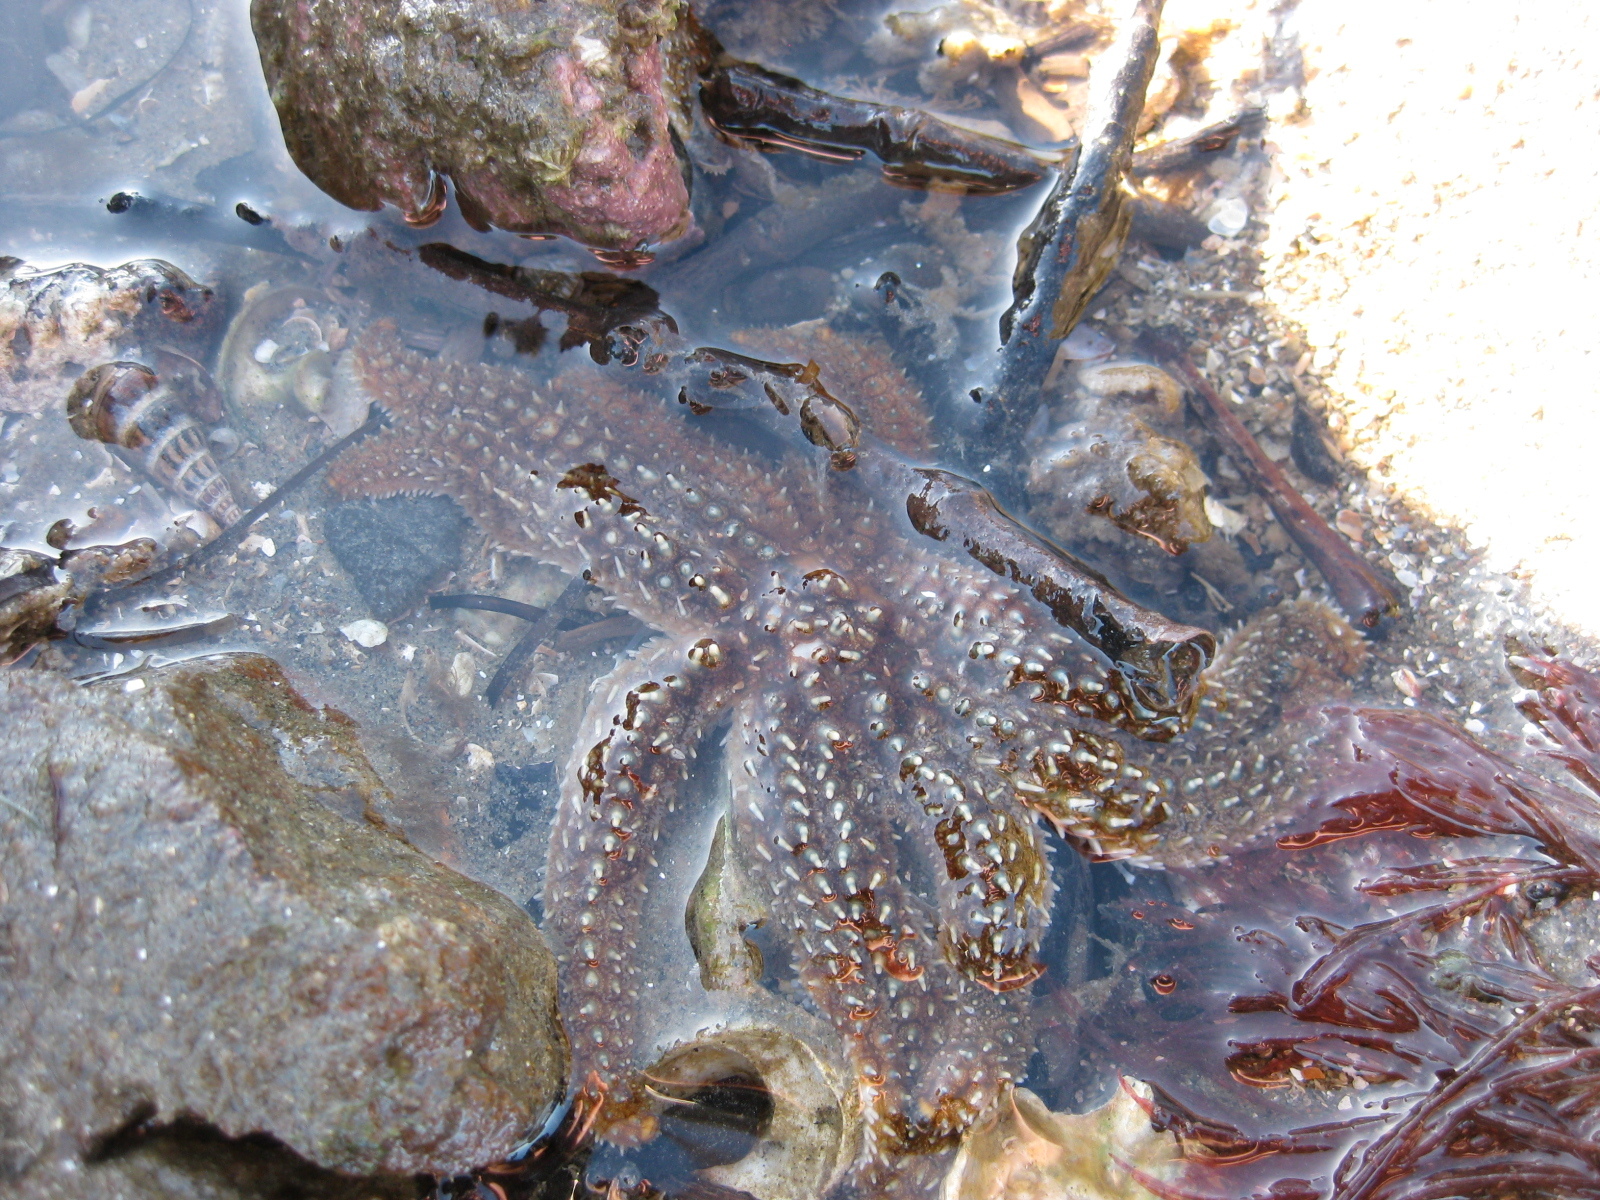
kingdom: Animalia
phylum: Echinodermata
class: Asteroidea
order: Forcipulatida
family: Asteriidae
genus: Coscinasterias
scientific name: Coscinasterias muricata
